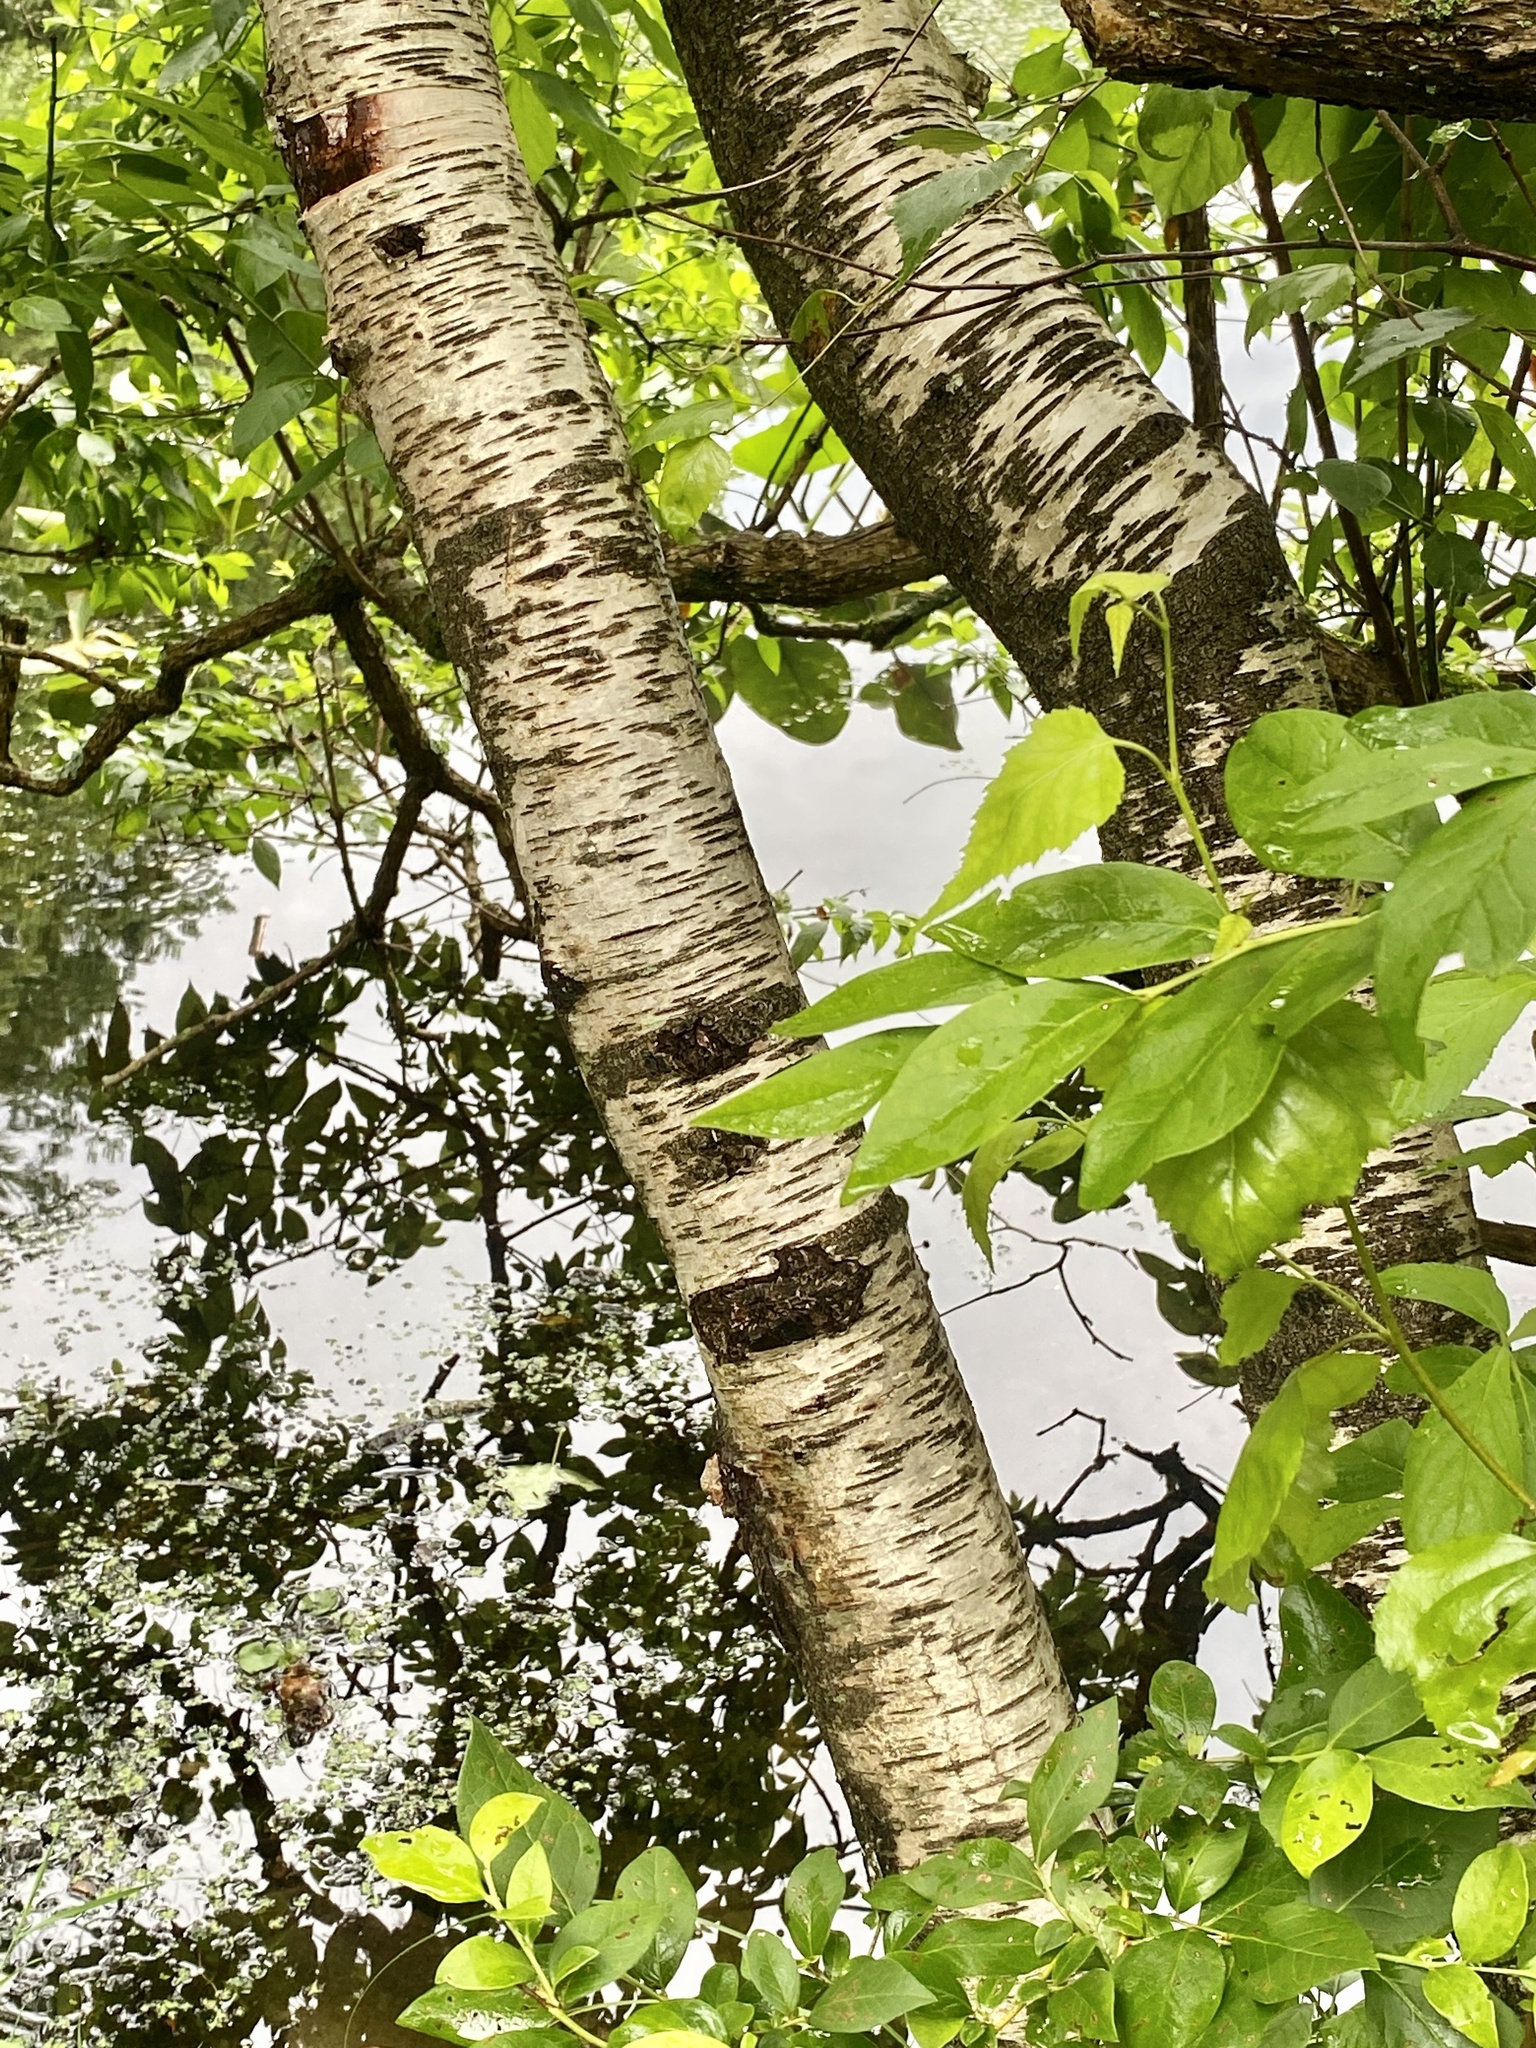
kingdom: Plantae
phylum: Tracheophyta
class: Magnoliopsida
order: Fagales
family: Betulaceae
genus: Betula
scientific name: Betula populifolia
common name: Fire birch
